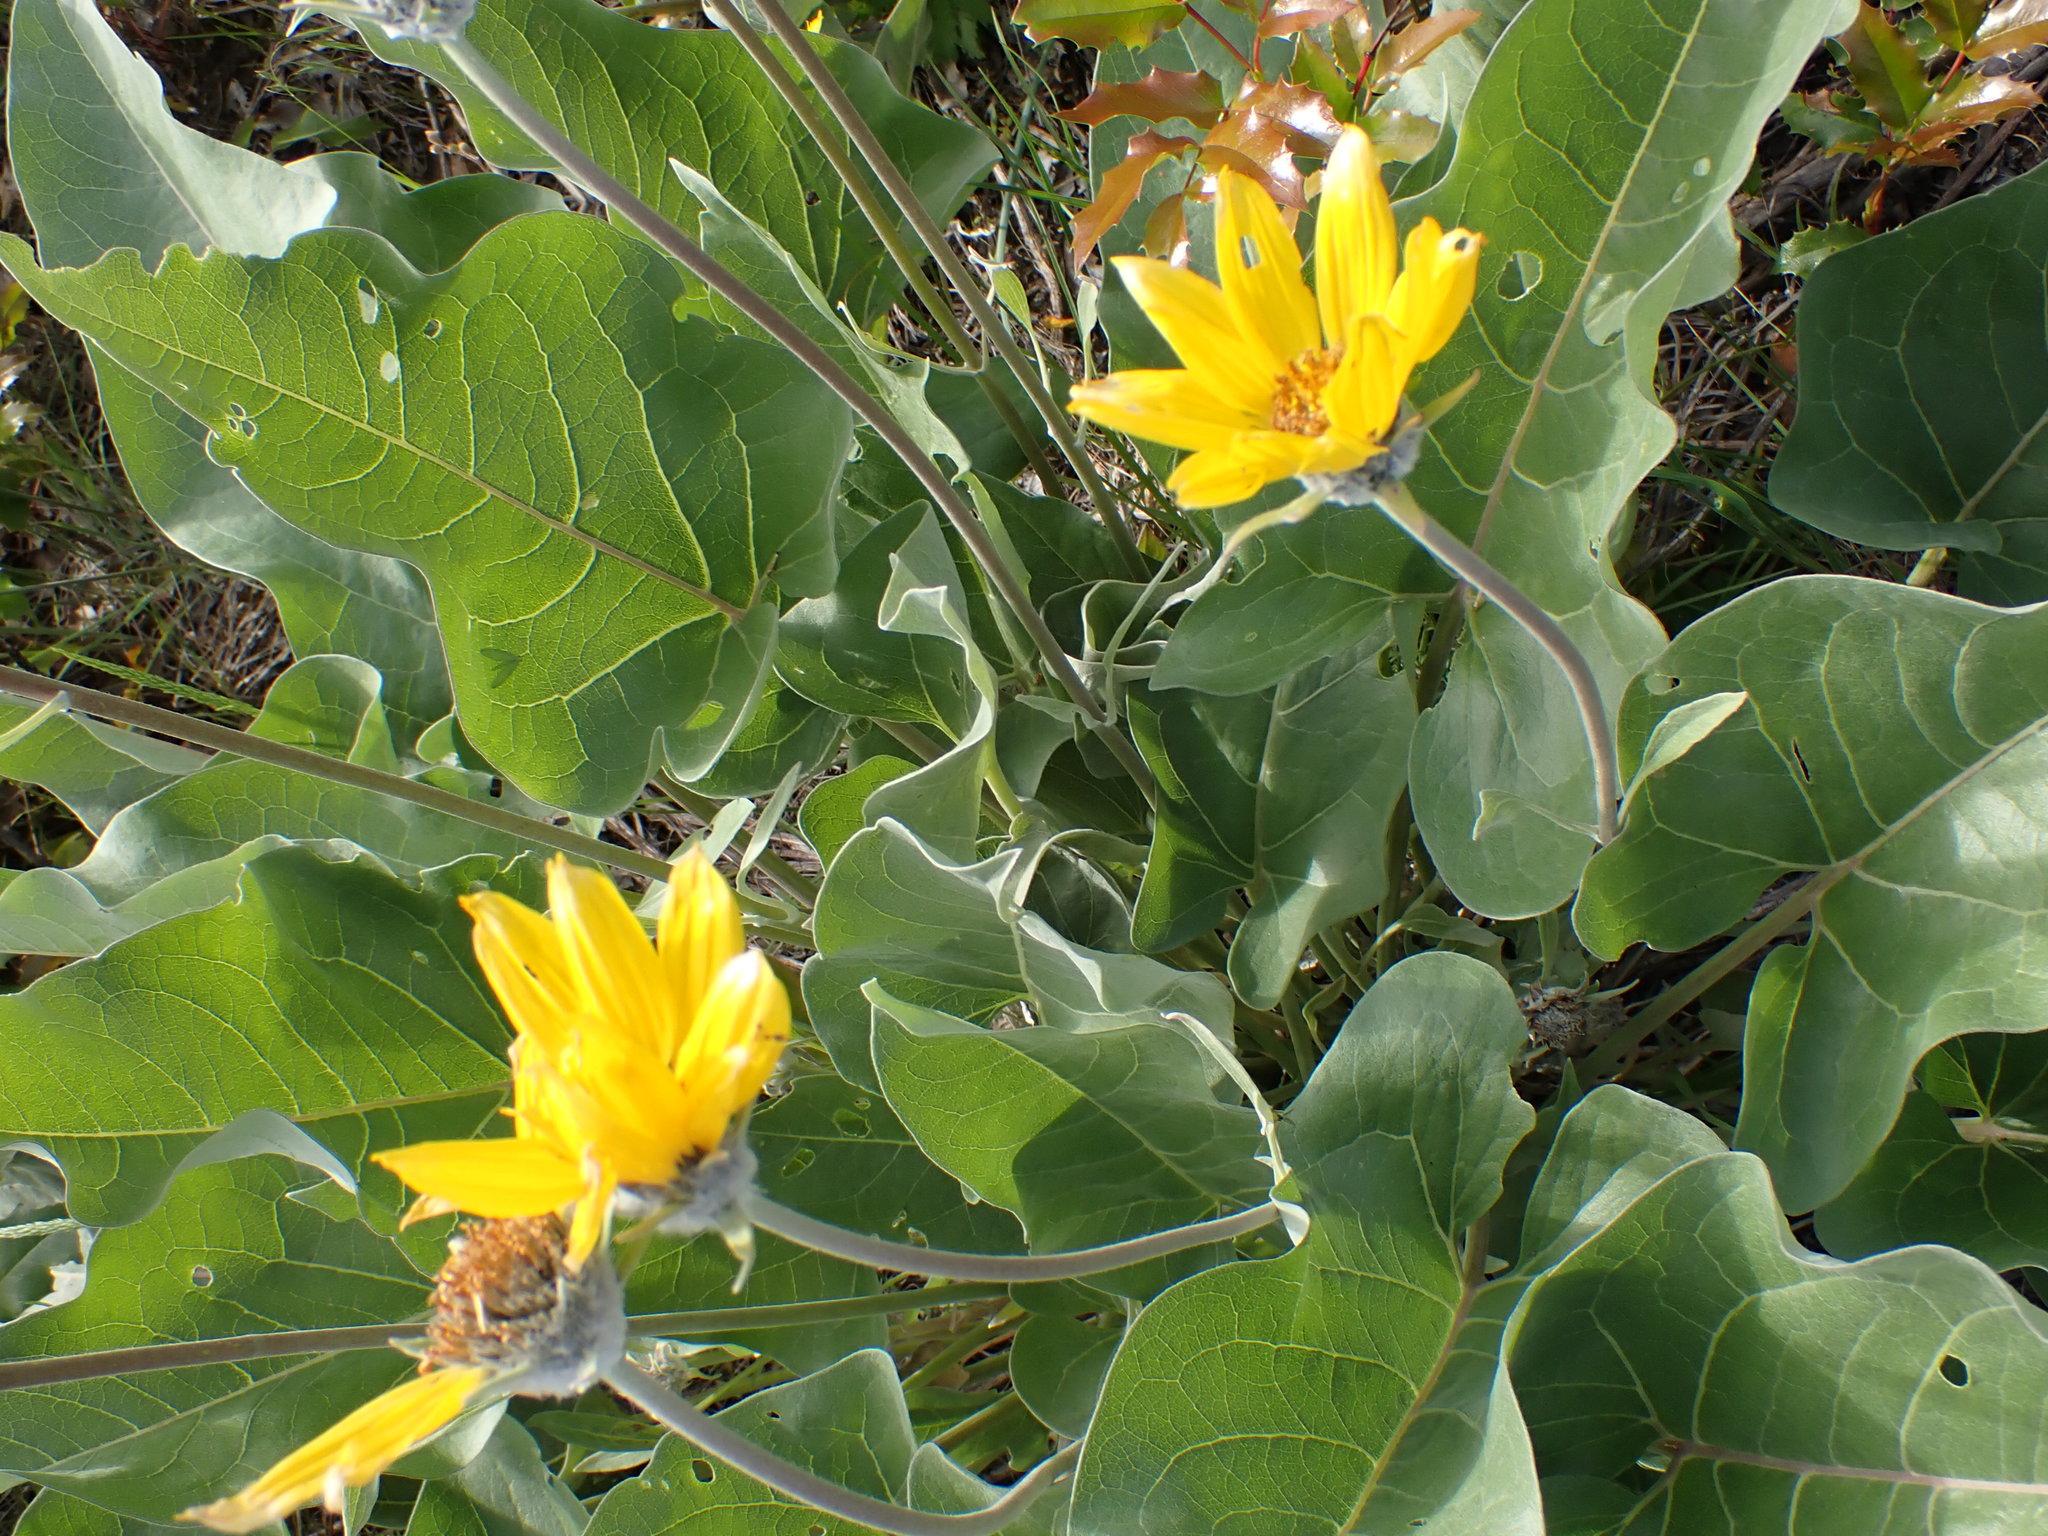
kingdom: Plantae
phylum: Tracheophyta
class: Magnoliopsida
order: Asterales
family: Asteraceae
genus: Wyethia
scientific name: Wyethia sagittata
